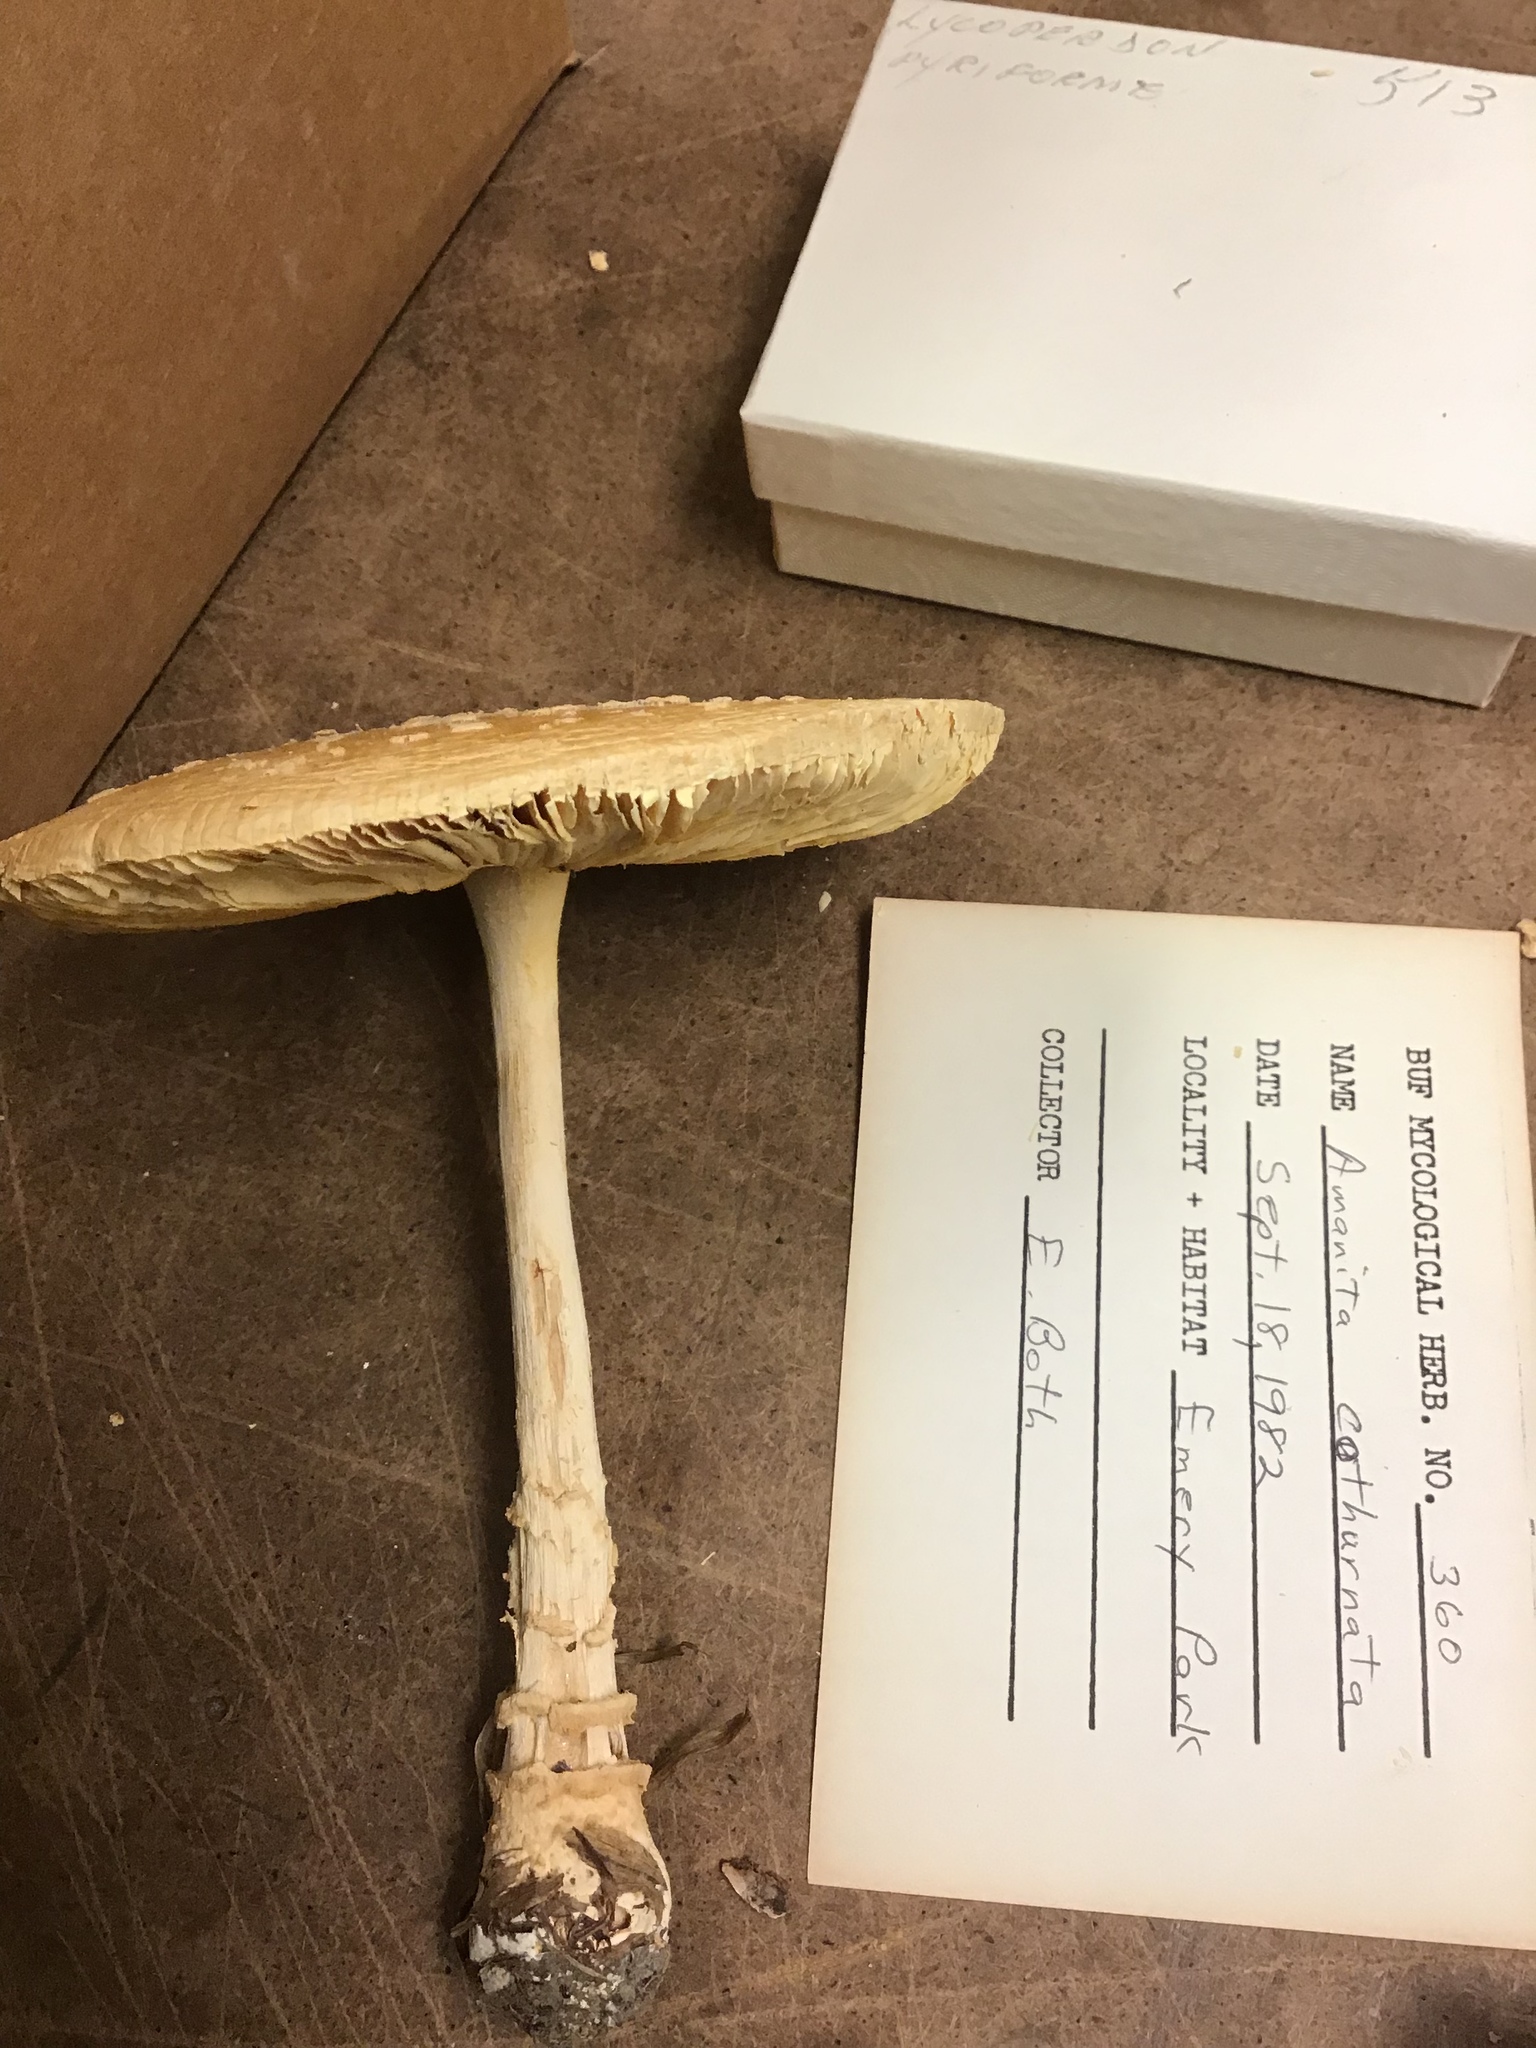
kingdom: Fungi
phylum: Basidiomycota
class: Agaricomycetes
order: Agaricales
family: Amanitaceae
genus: Amanita
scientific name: Amanita multisquamosa
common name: Small funnel-veil amanita
